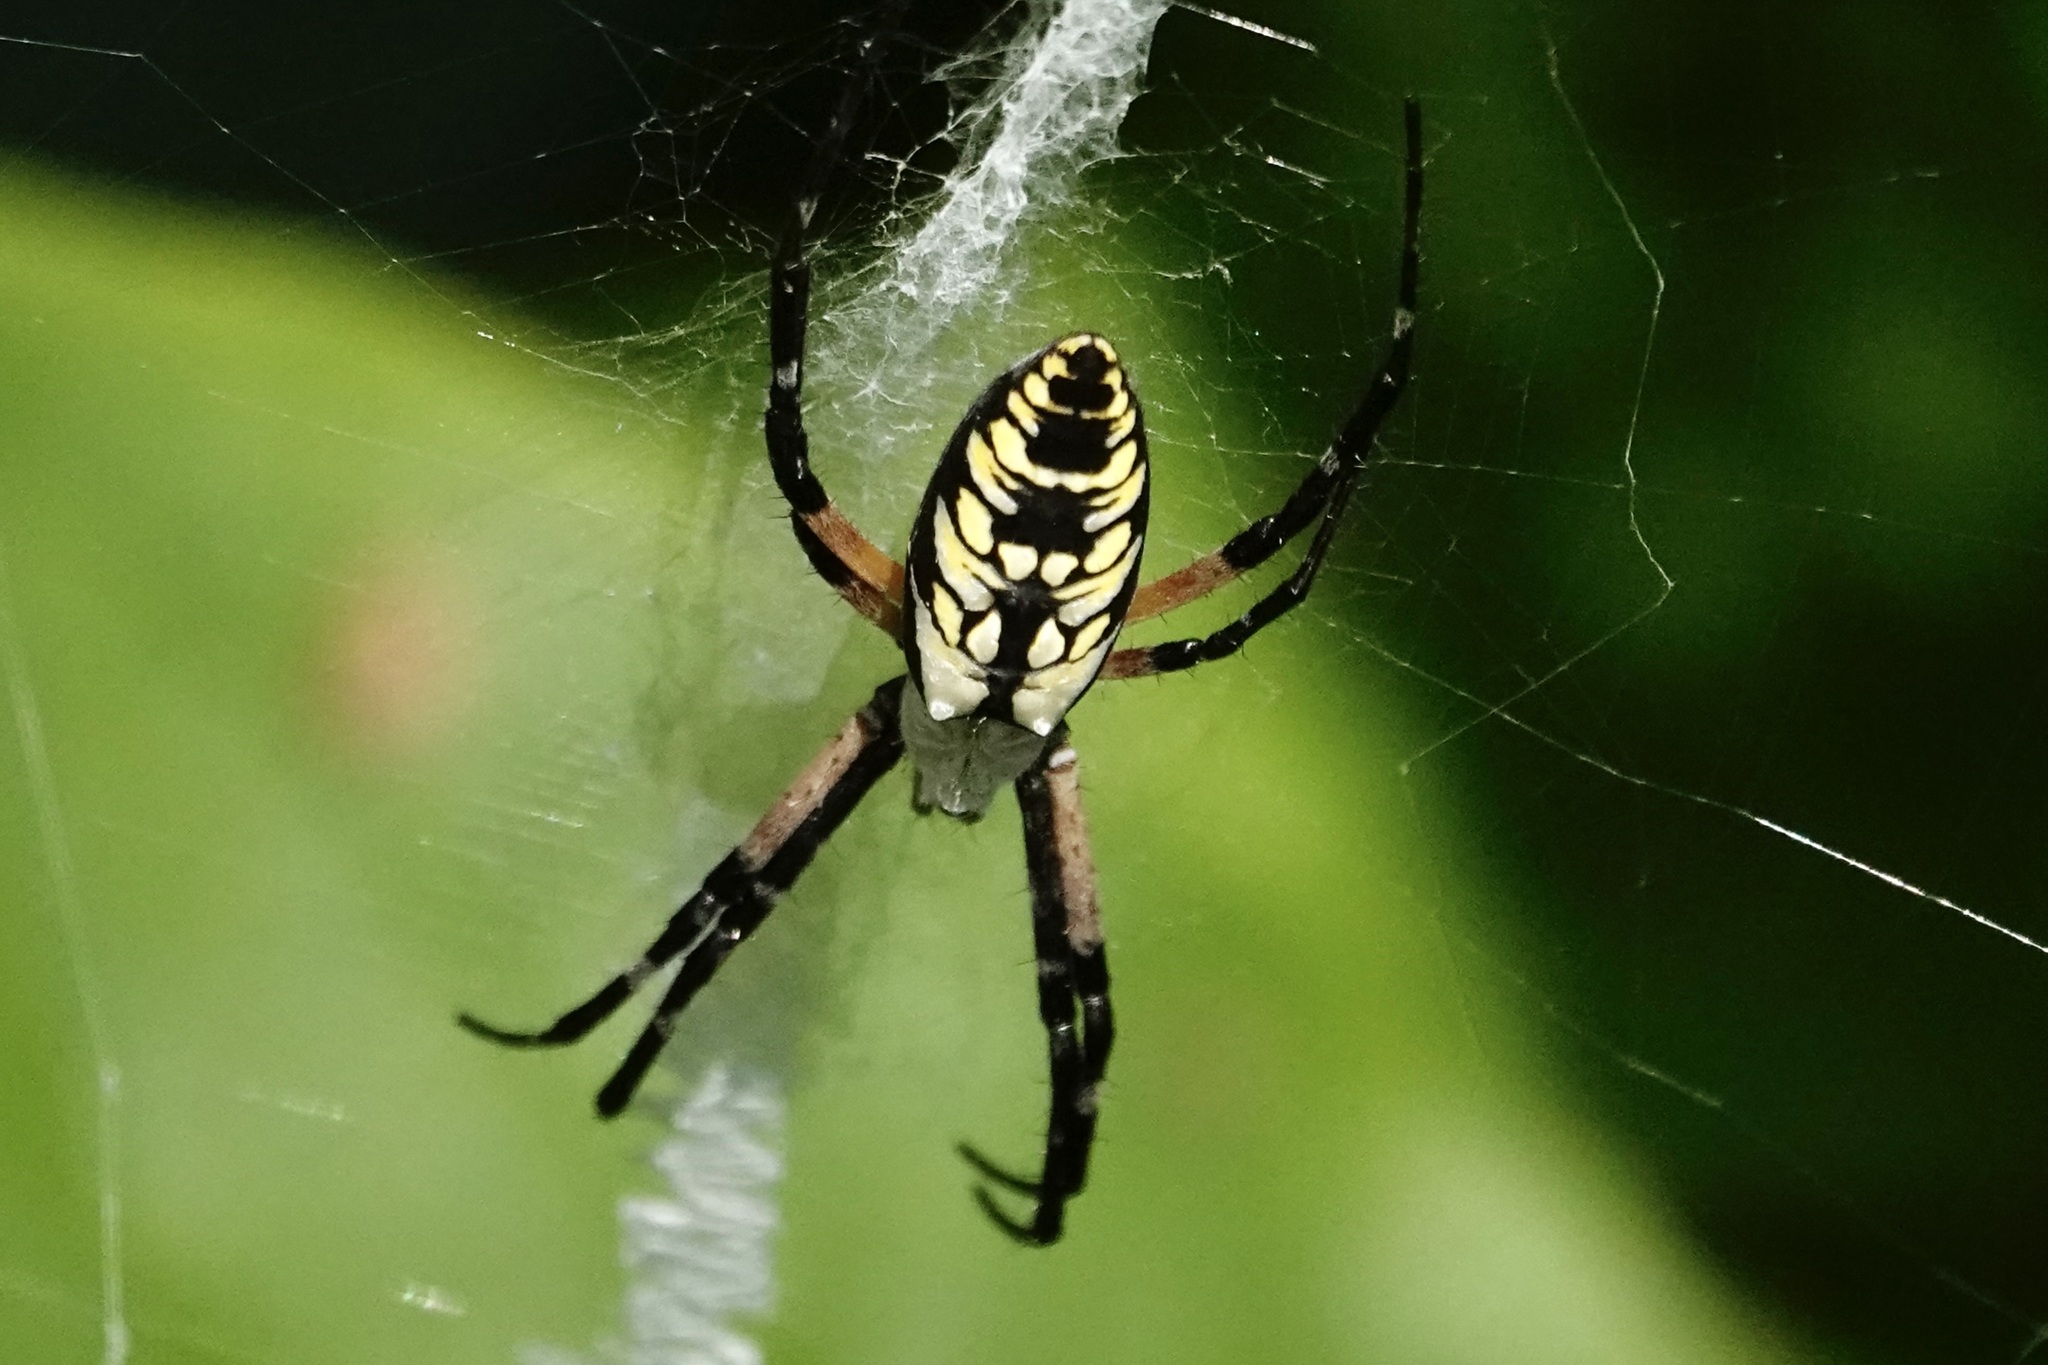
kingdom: Animalia
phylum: Arthropoda
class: Arachnida
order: Araneae
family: Araneidae
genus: Argiope
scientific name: Argiope aurantia
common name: Orb weavers
